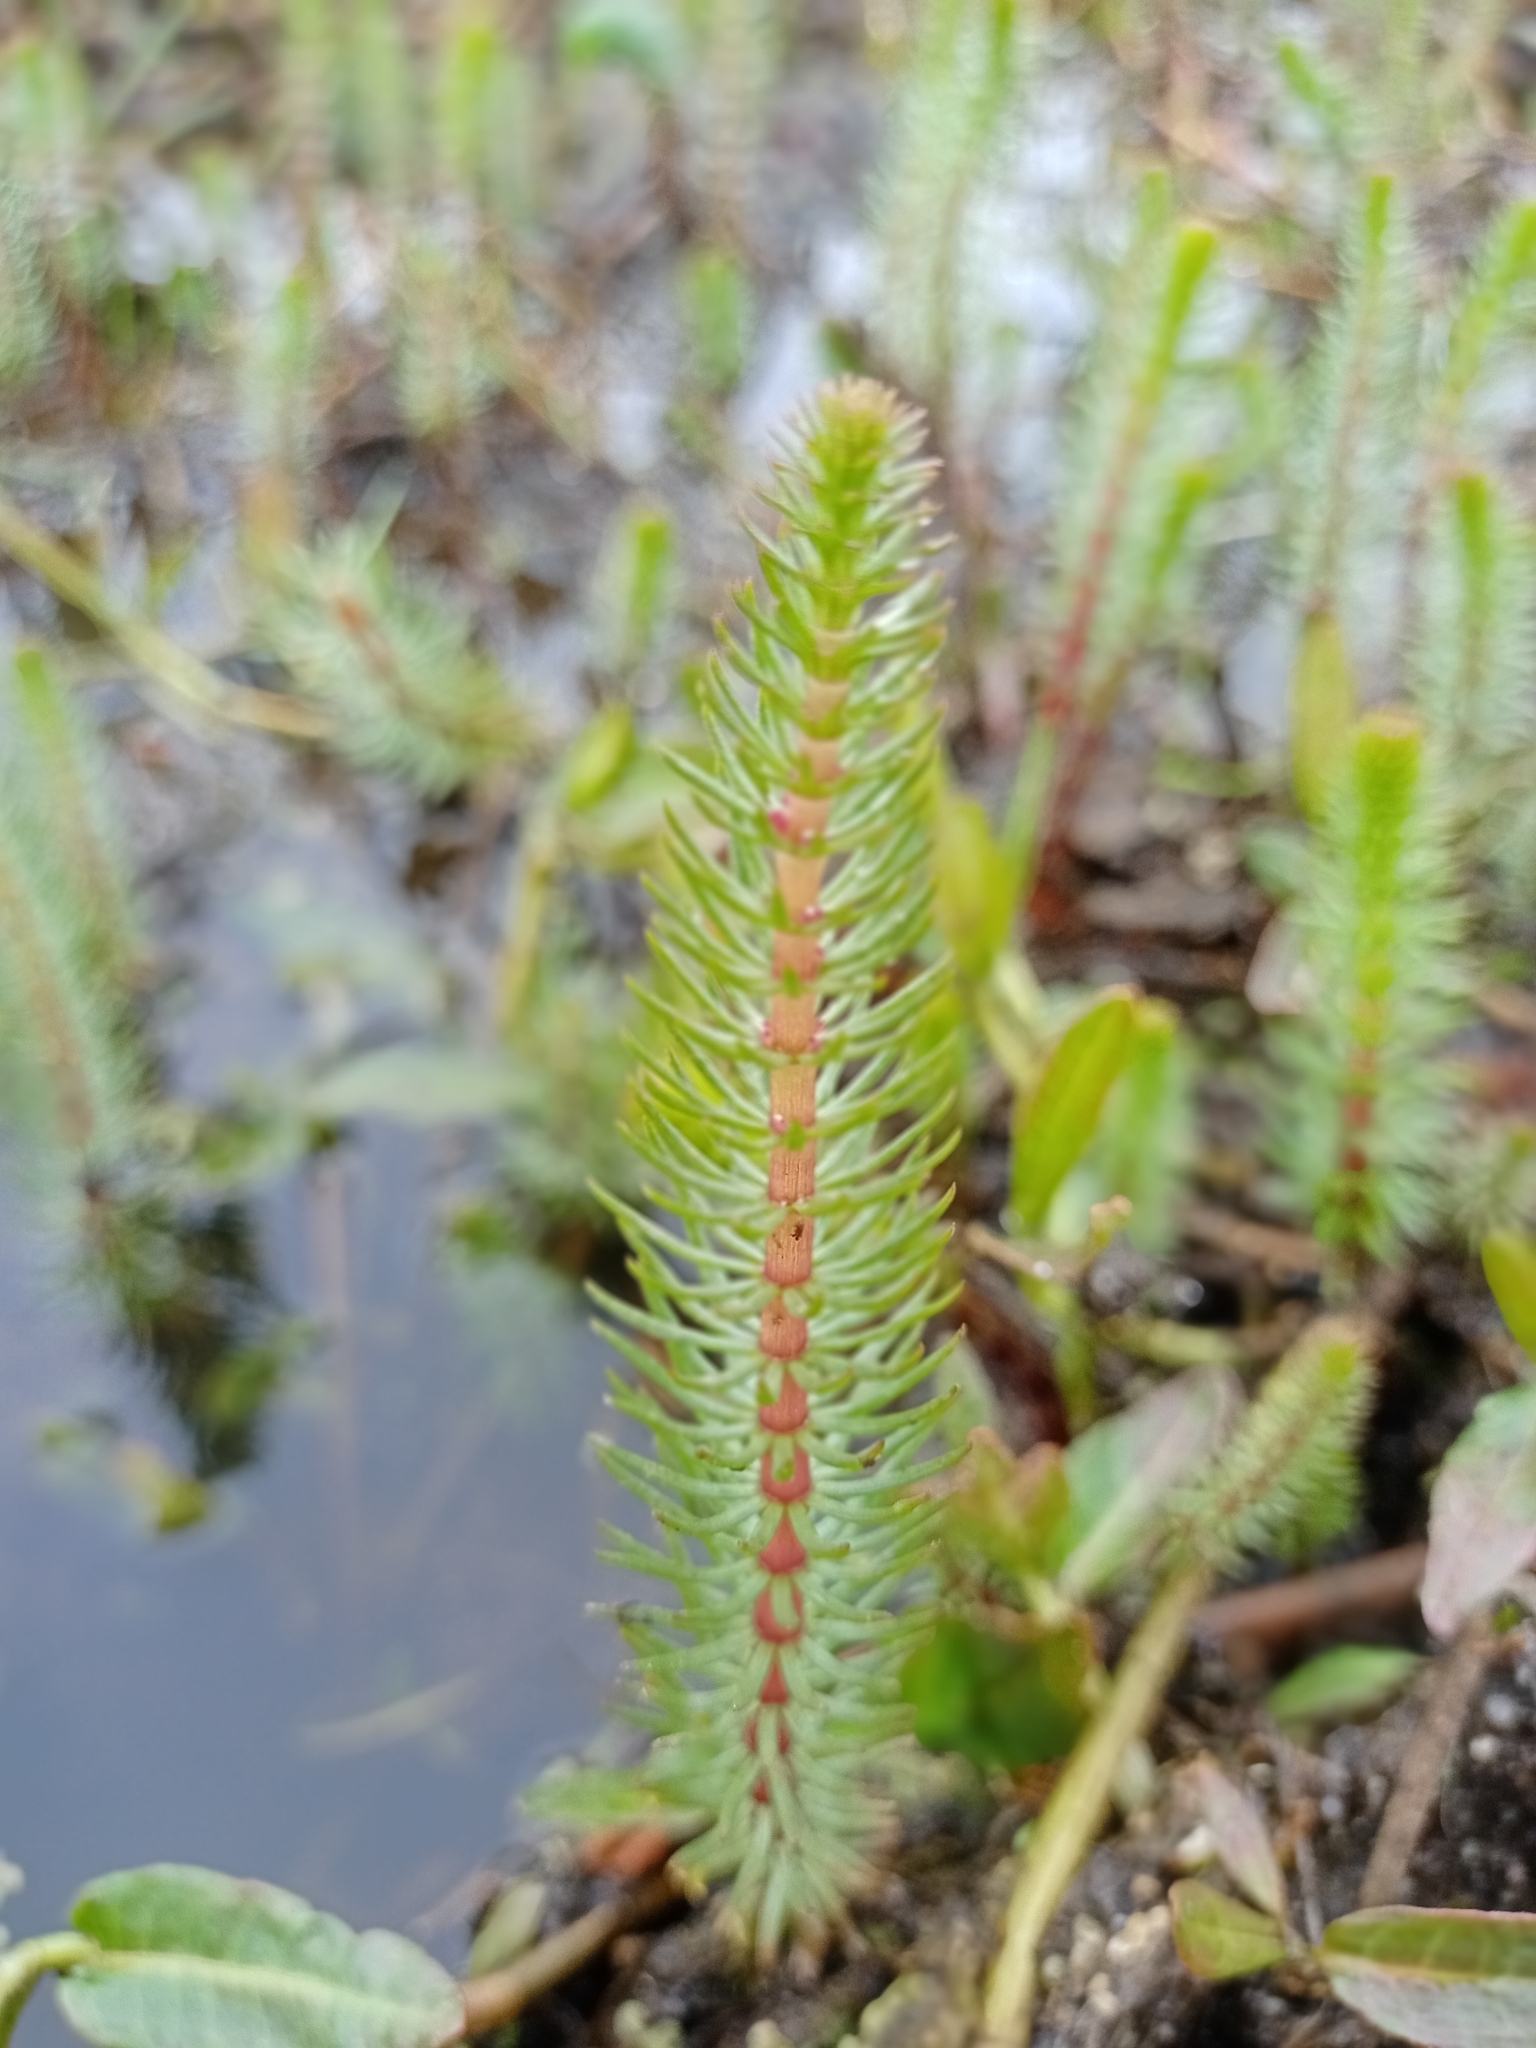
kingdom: Plantae
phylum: Tracheophyta
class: Magnoliopsida
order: Lamiales
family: Plantaginaceae
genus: Hippuris
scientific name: Hippuris vulgaris
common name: Mare's-tail
